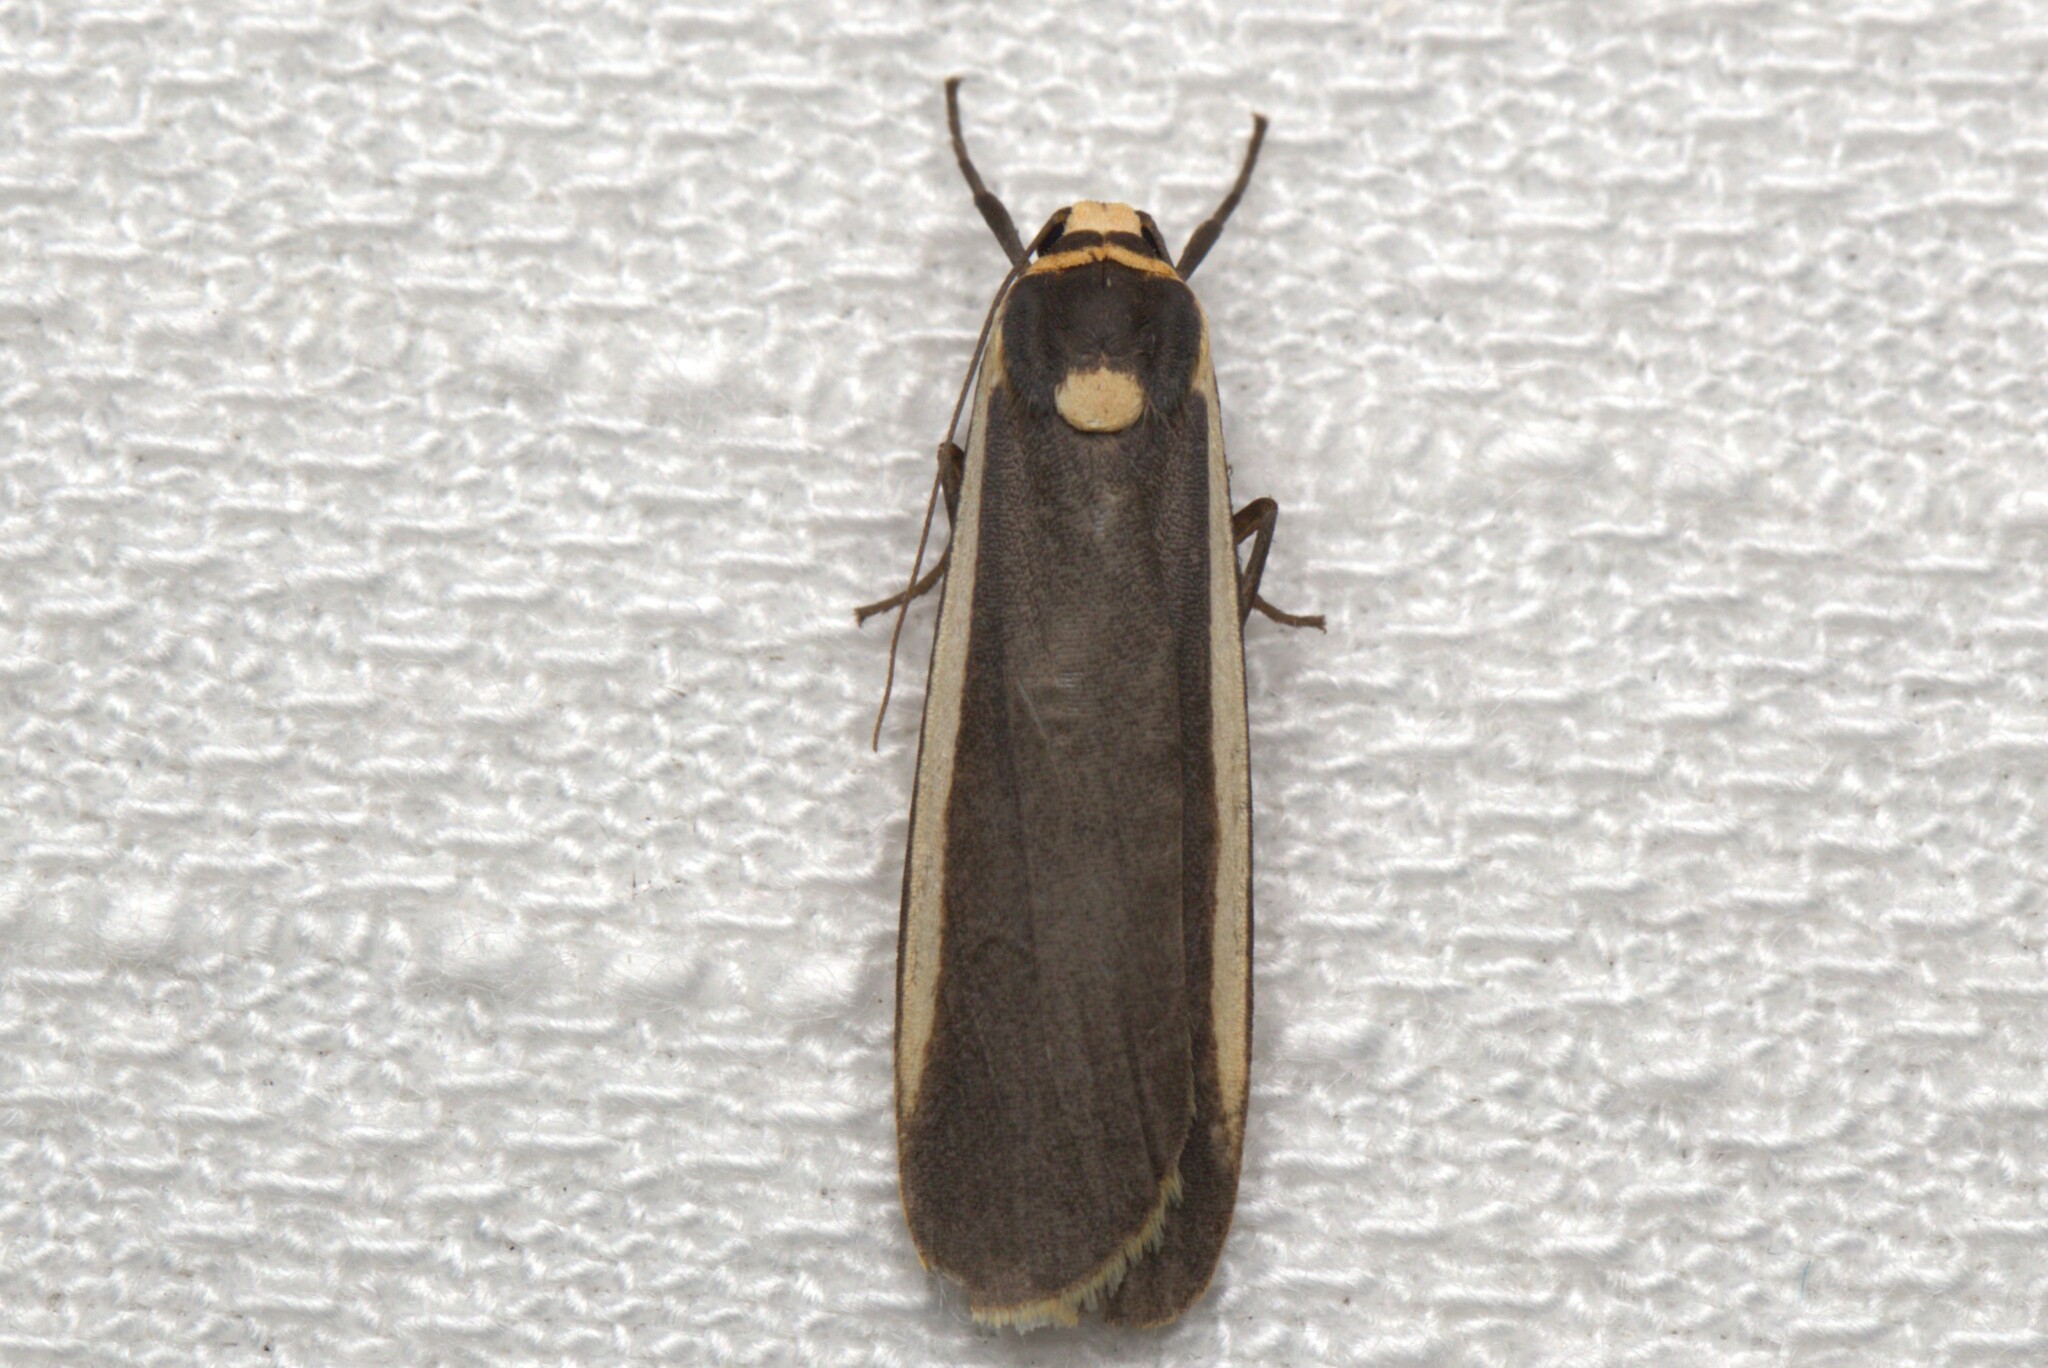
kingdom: Animalia
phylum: Arthropoda
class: Insecta
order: Lepidoptera
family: Erebidae
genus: Brunia
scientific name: Brunia replana
